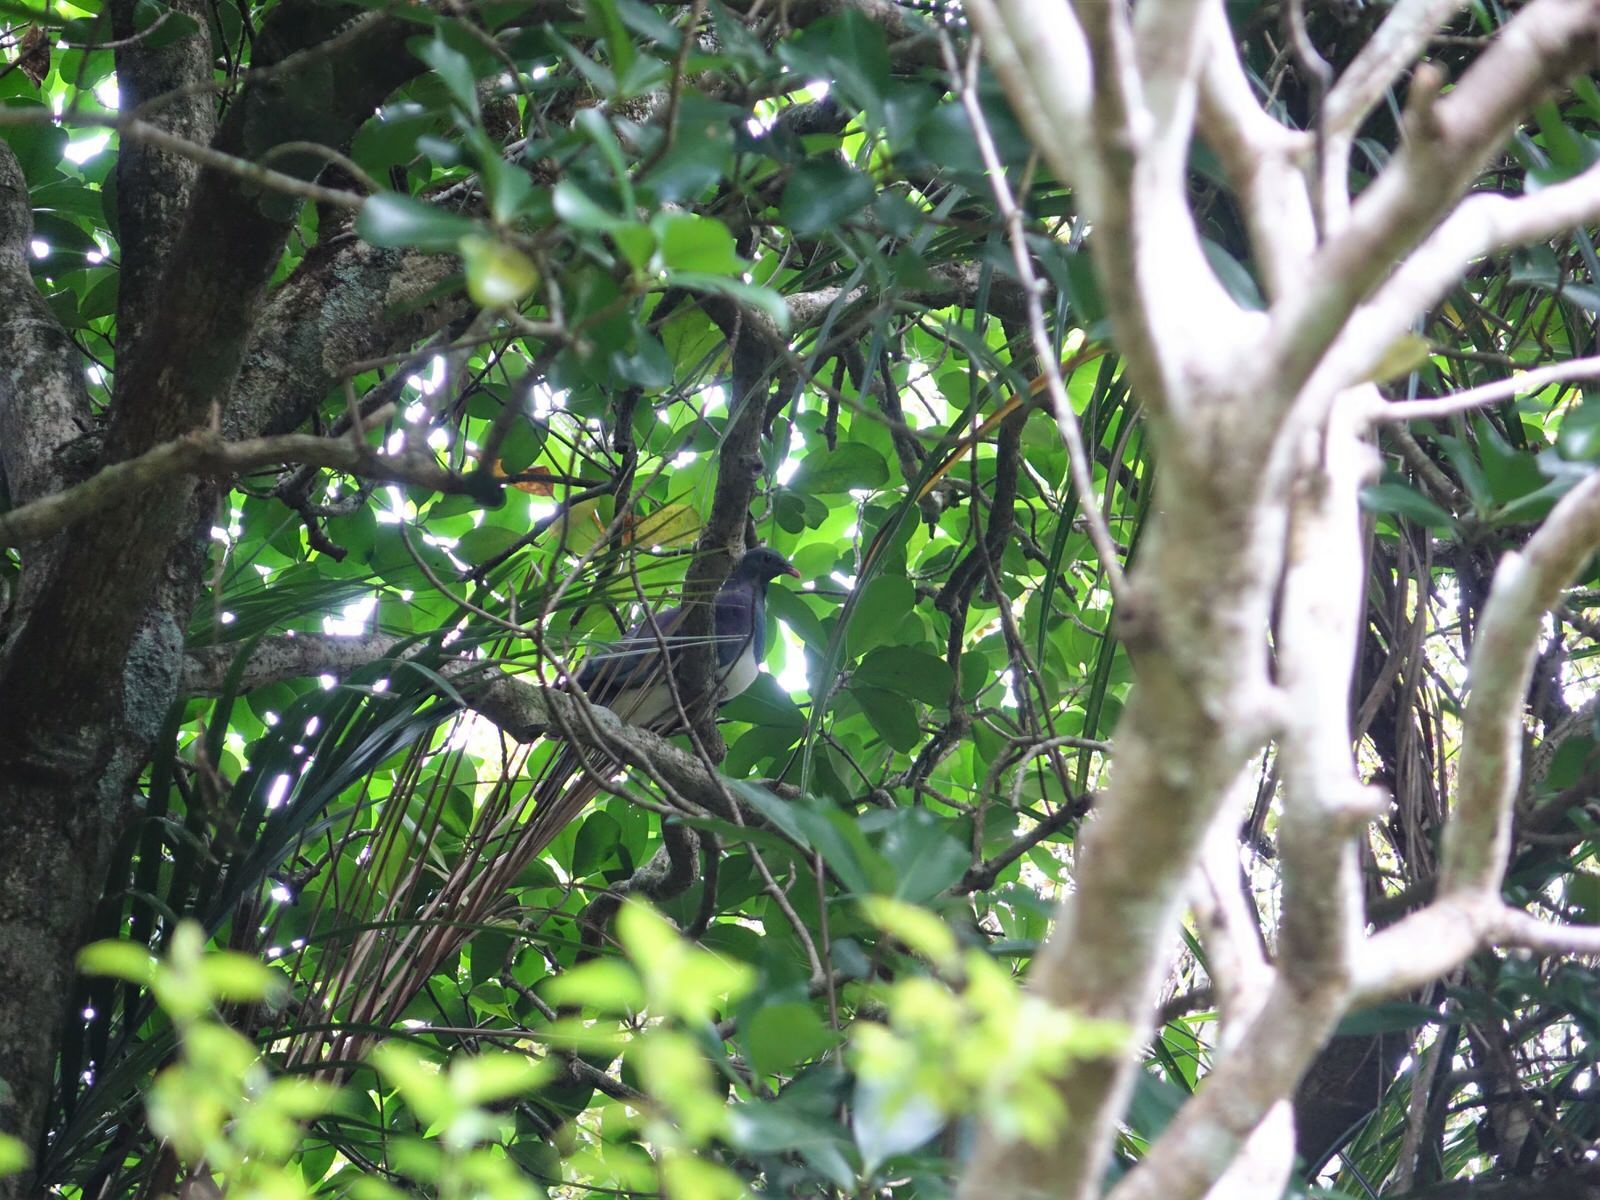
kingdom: Animalia
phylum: Chordata
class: Aves
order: Columbiformes
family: Columbidae
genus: Hemiphaga
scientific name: Hemiphaga novaeseelandiae
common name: New zealand pigeon
